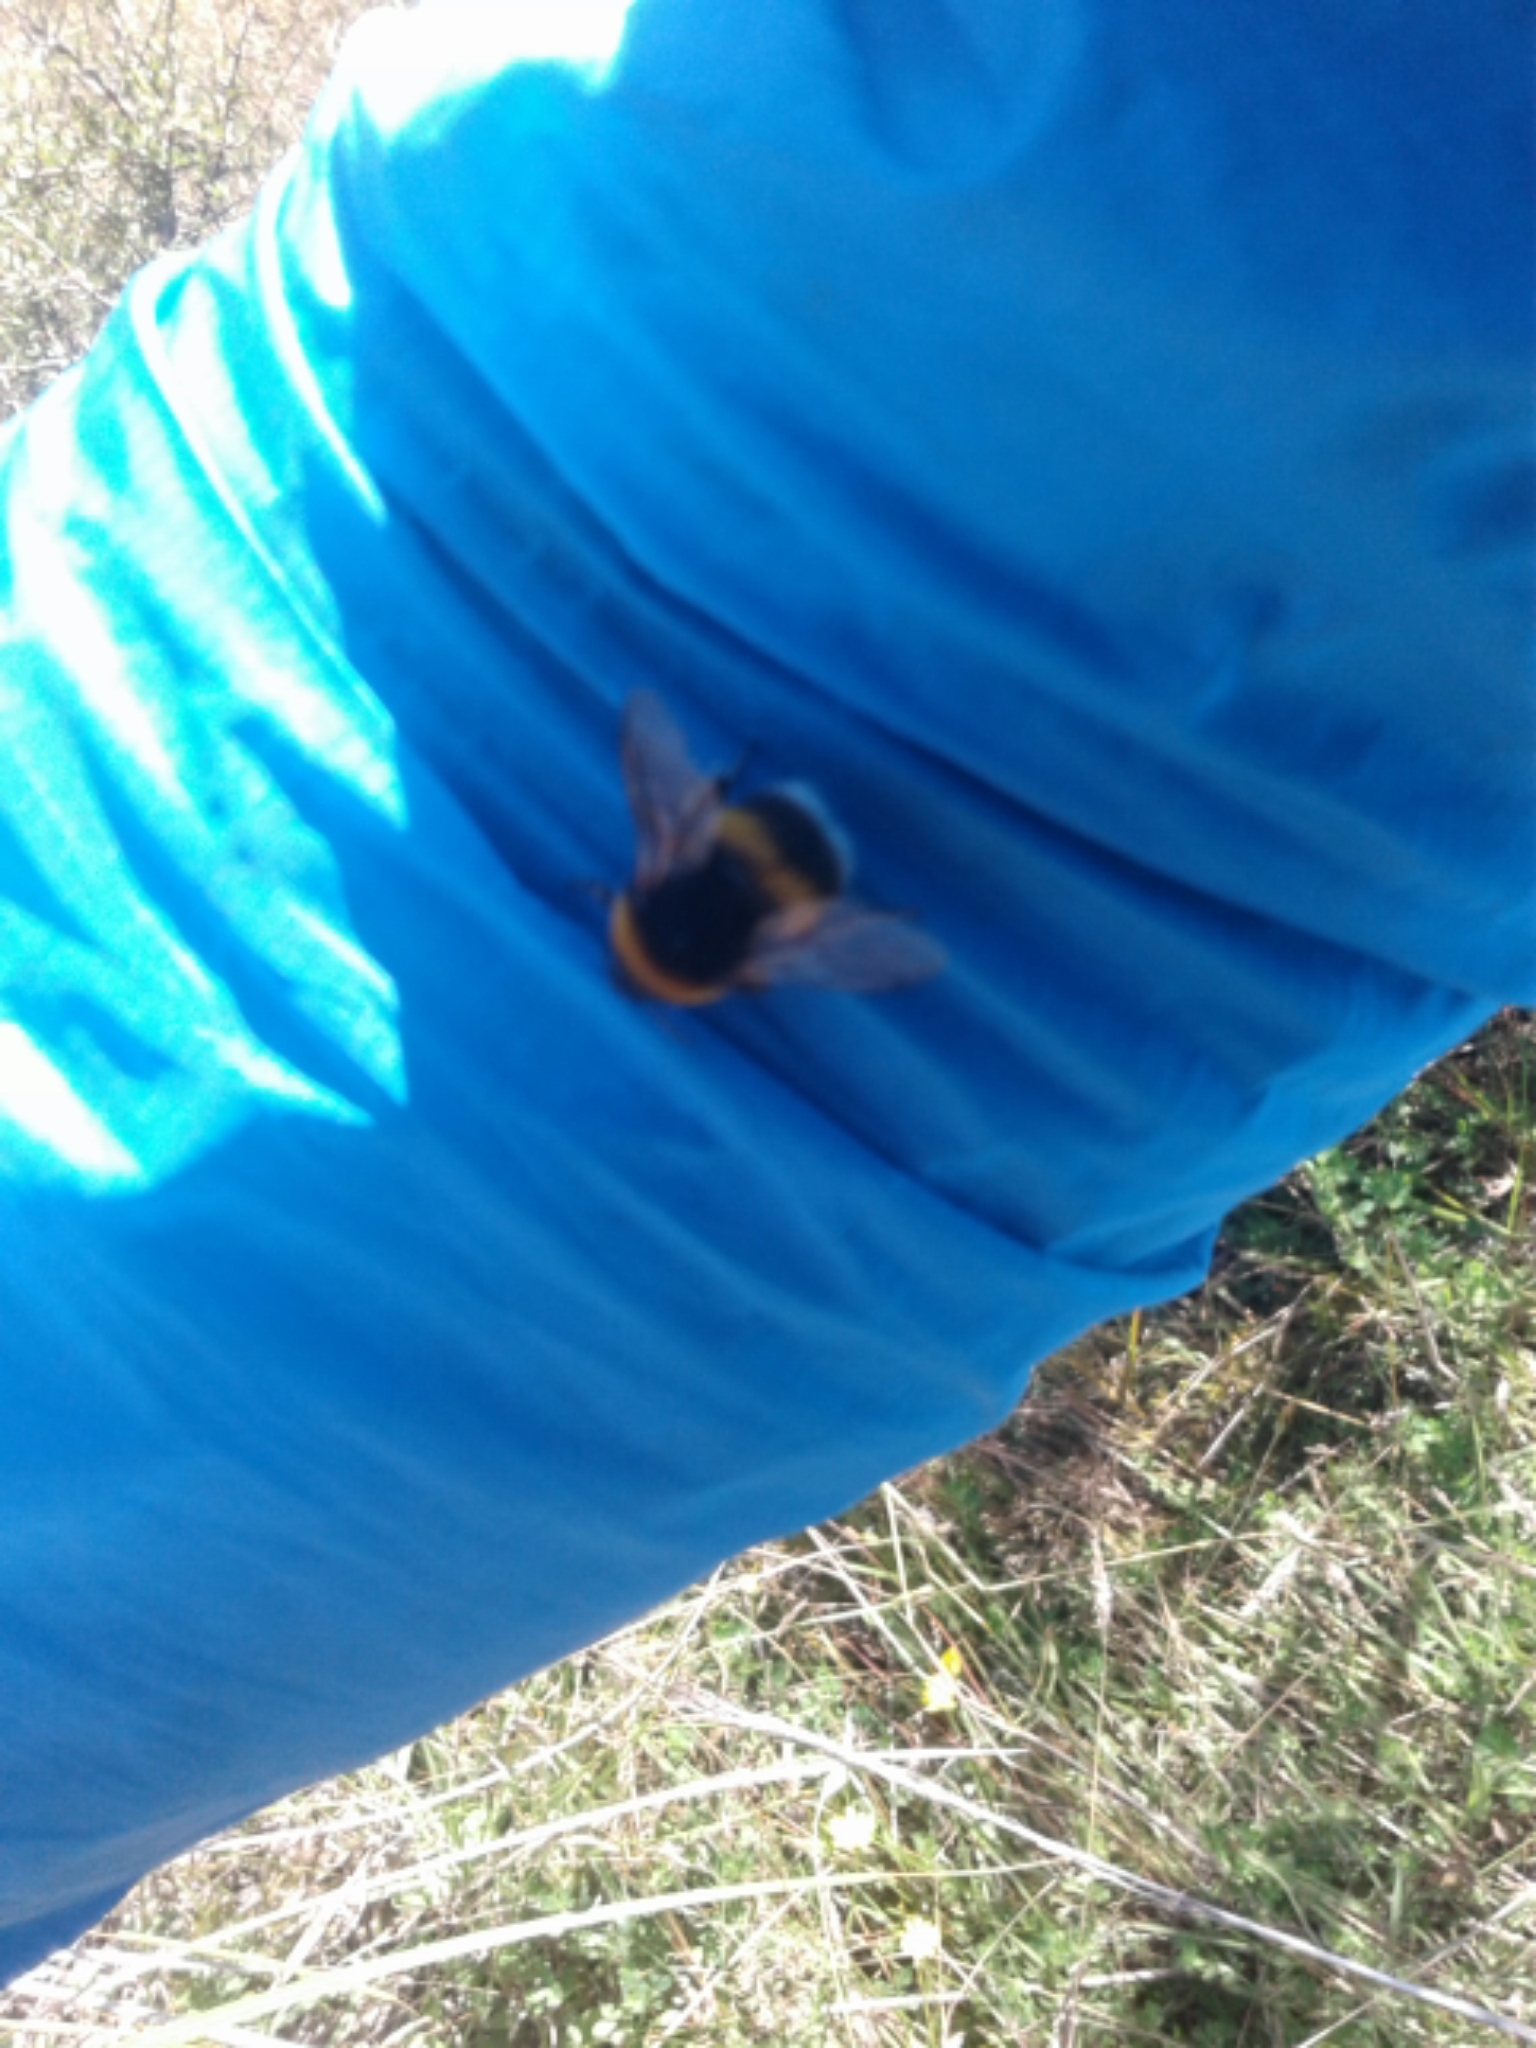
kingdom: Animalia
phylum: Arthropoda
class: Insecta
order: Hymenoptera
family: Apidae
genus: Bombus
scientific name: Bombus terrestris
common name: Buff-tailed bumblebee
